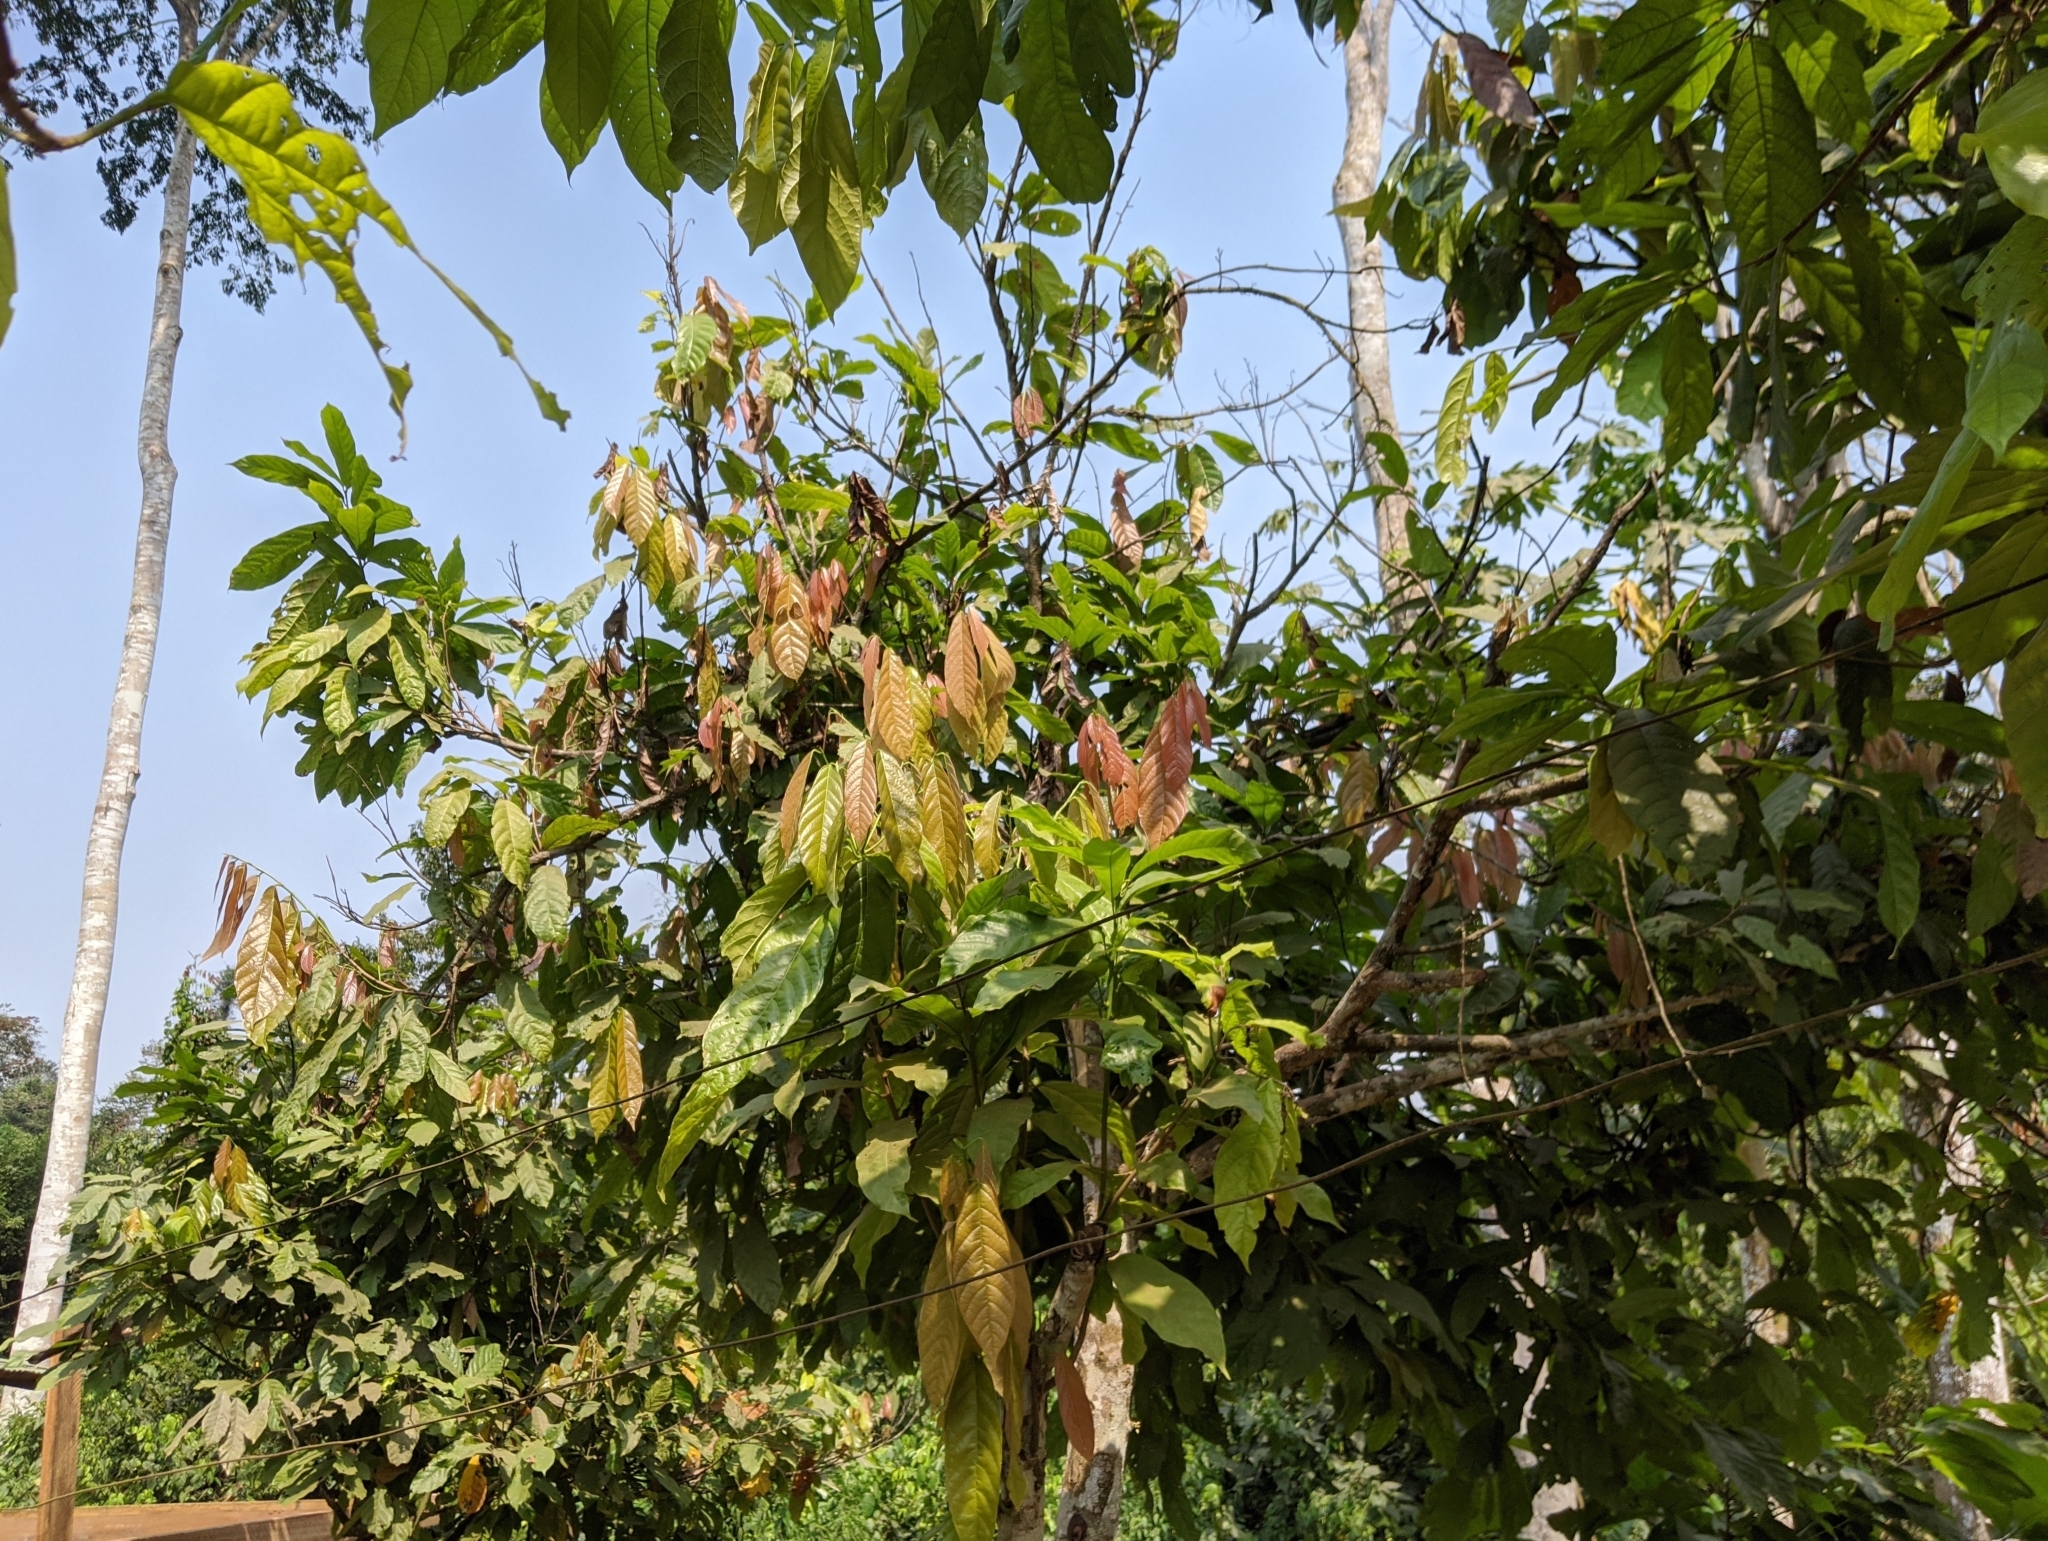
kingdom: Plantae
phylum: Tracheophyta
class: Magnoliopsida
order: Malvales
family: Malvaceae
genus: Theobroma
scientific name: Theobroma cacao
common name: Cocoa
